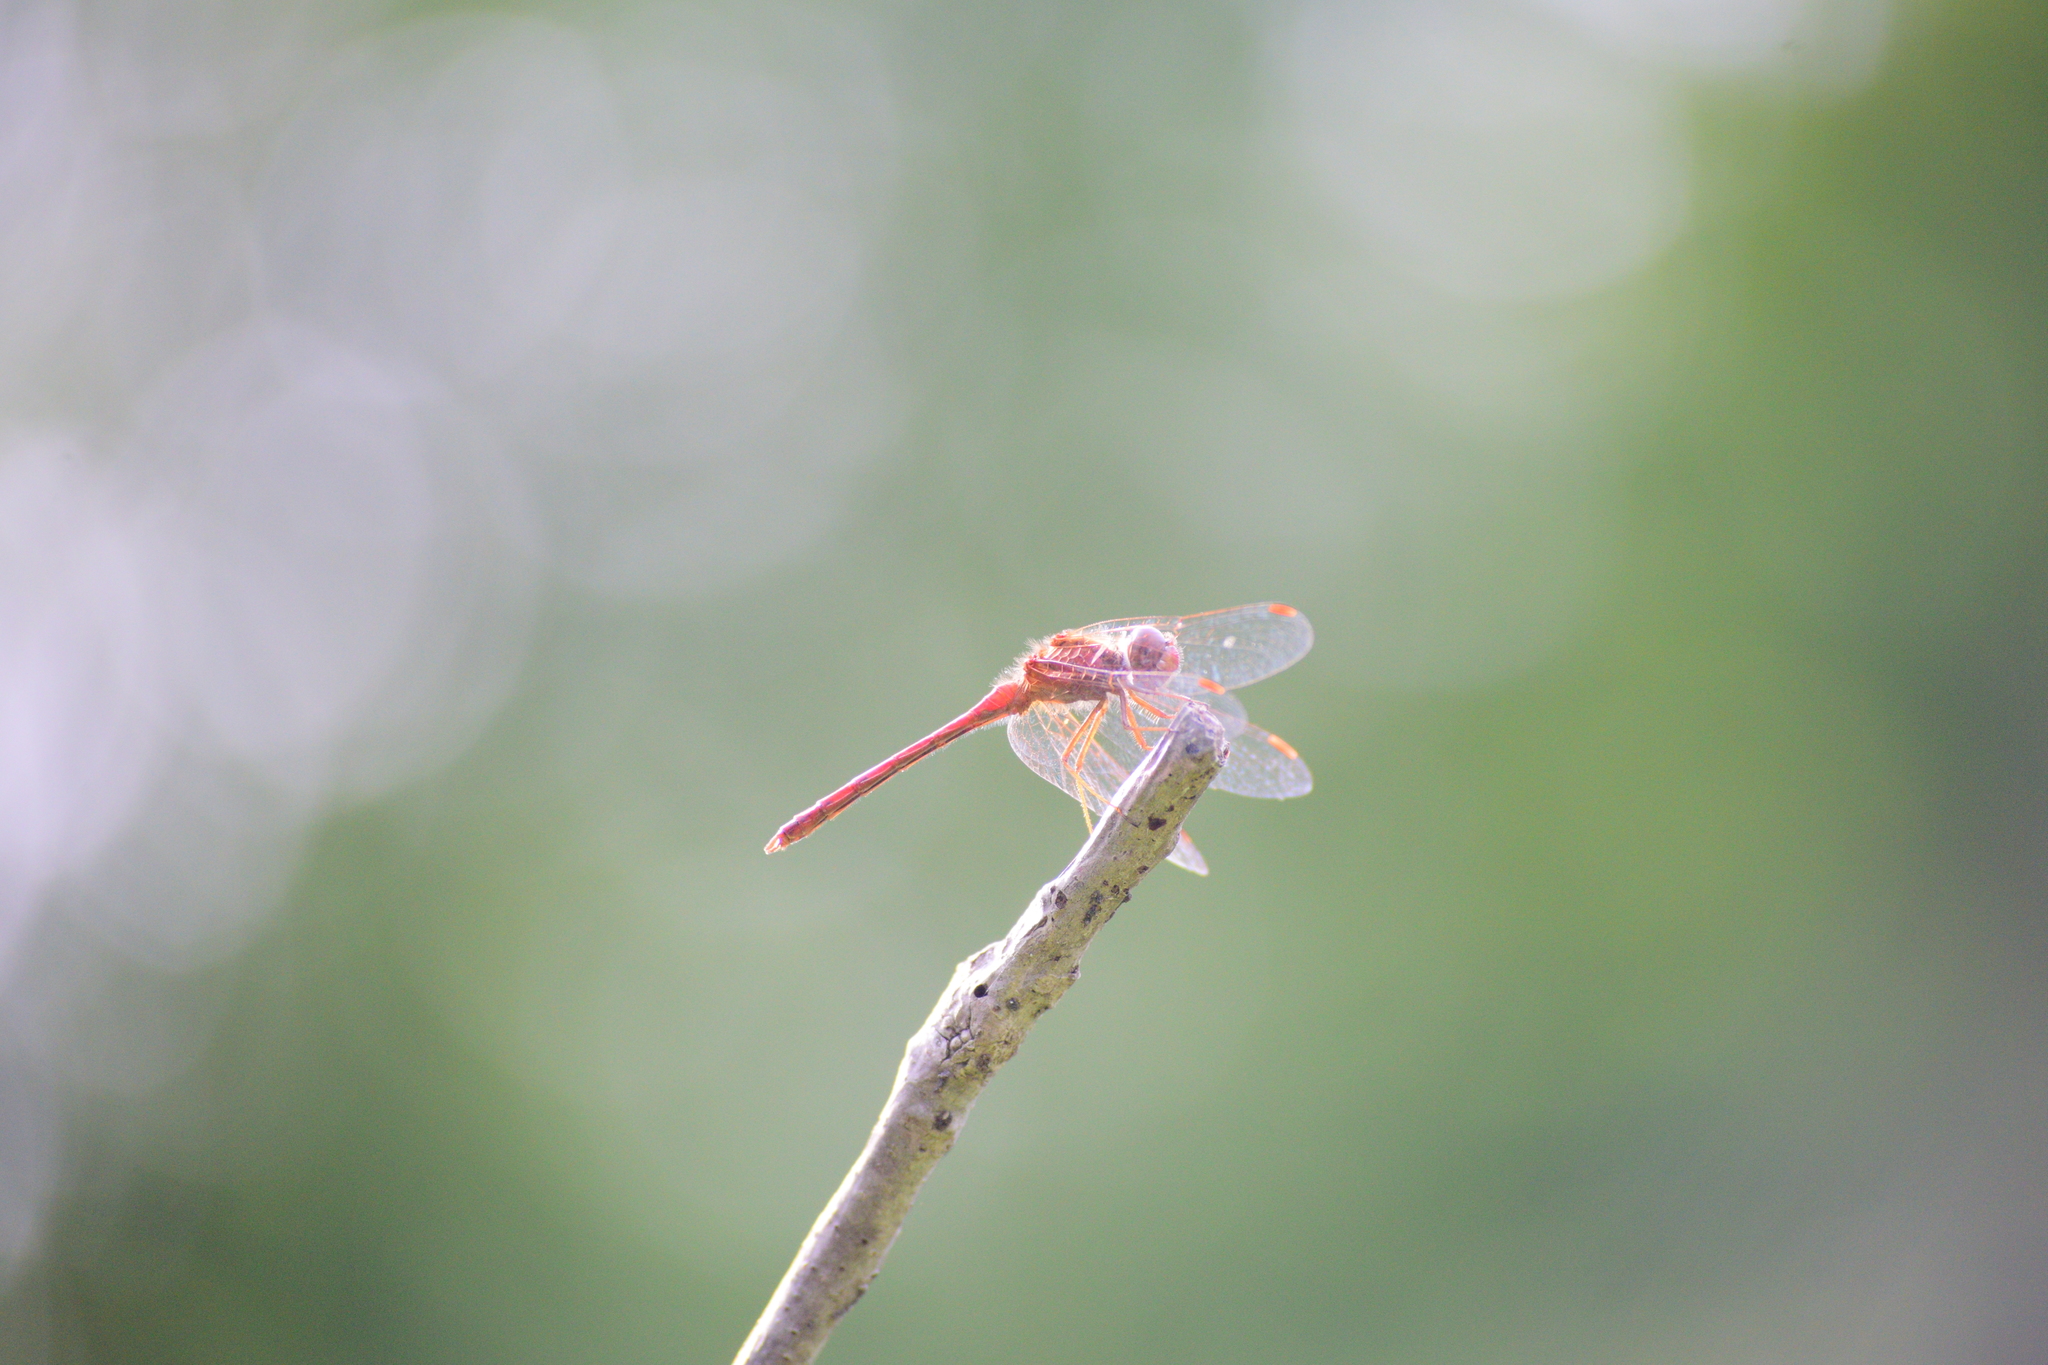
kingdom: Animalia
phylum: Arthropoda
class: Insecta
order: Odonata
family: Libellulidae
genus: Sympetrum
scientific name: Sympetrum vicinum
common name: Autumn meadowhawk
